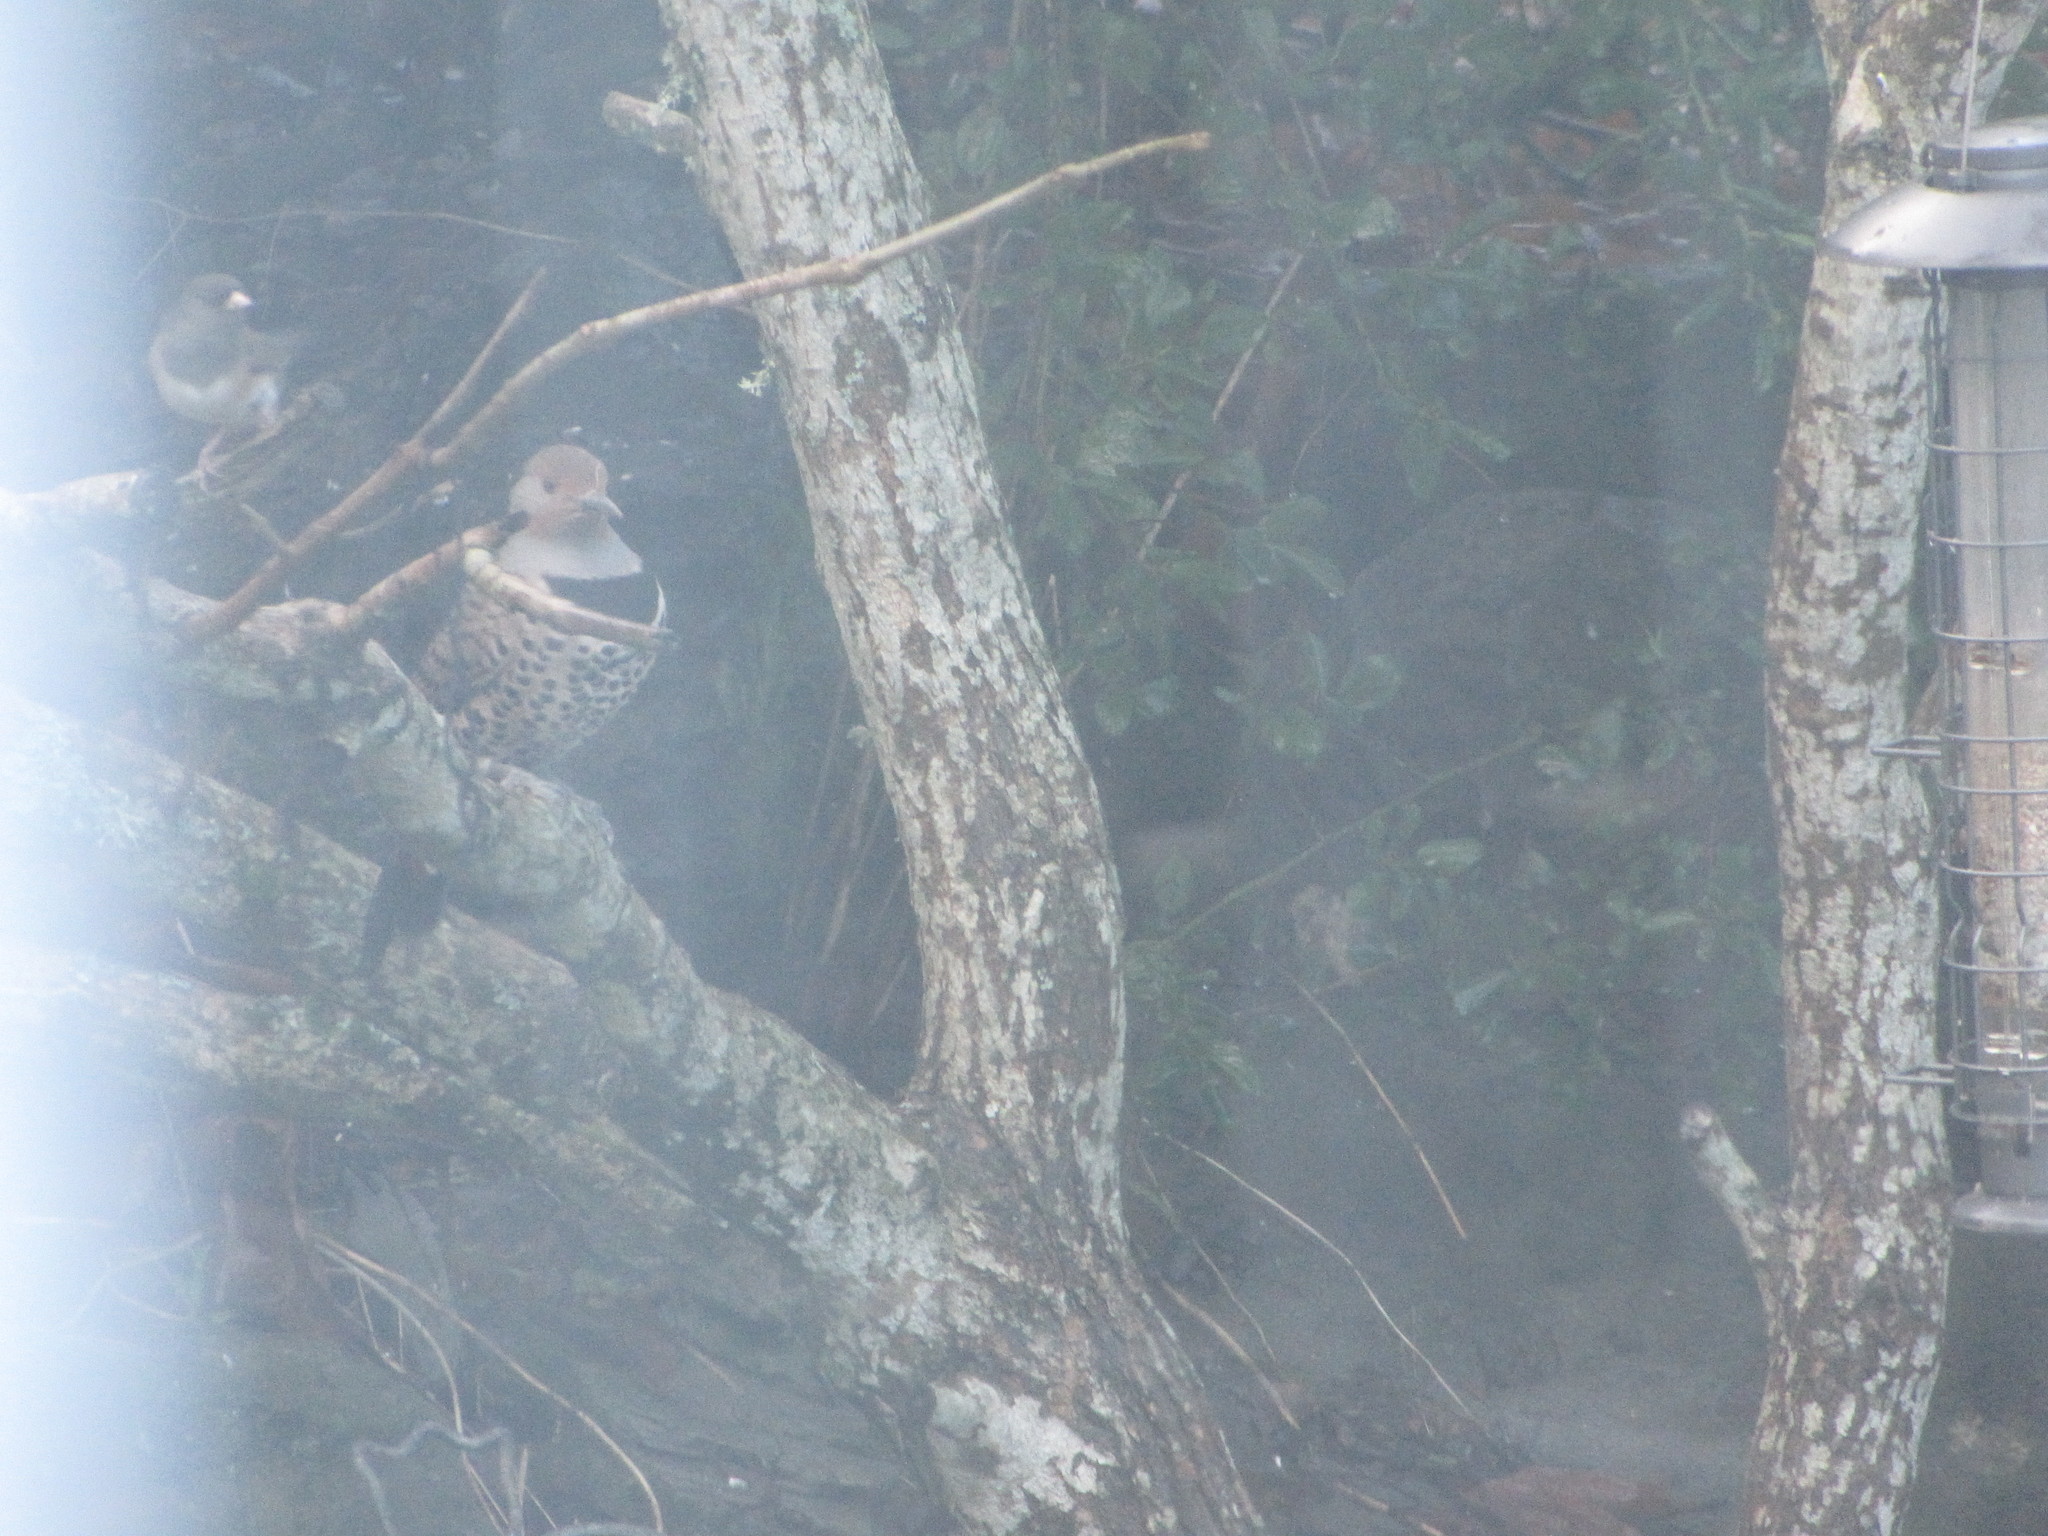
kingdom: Animalia
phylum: Chordata
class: Aves
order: Piciformes
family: Picidae
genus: Colaptes
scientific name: Colaptes auratus
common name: Northern flicker
